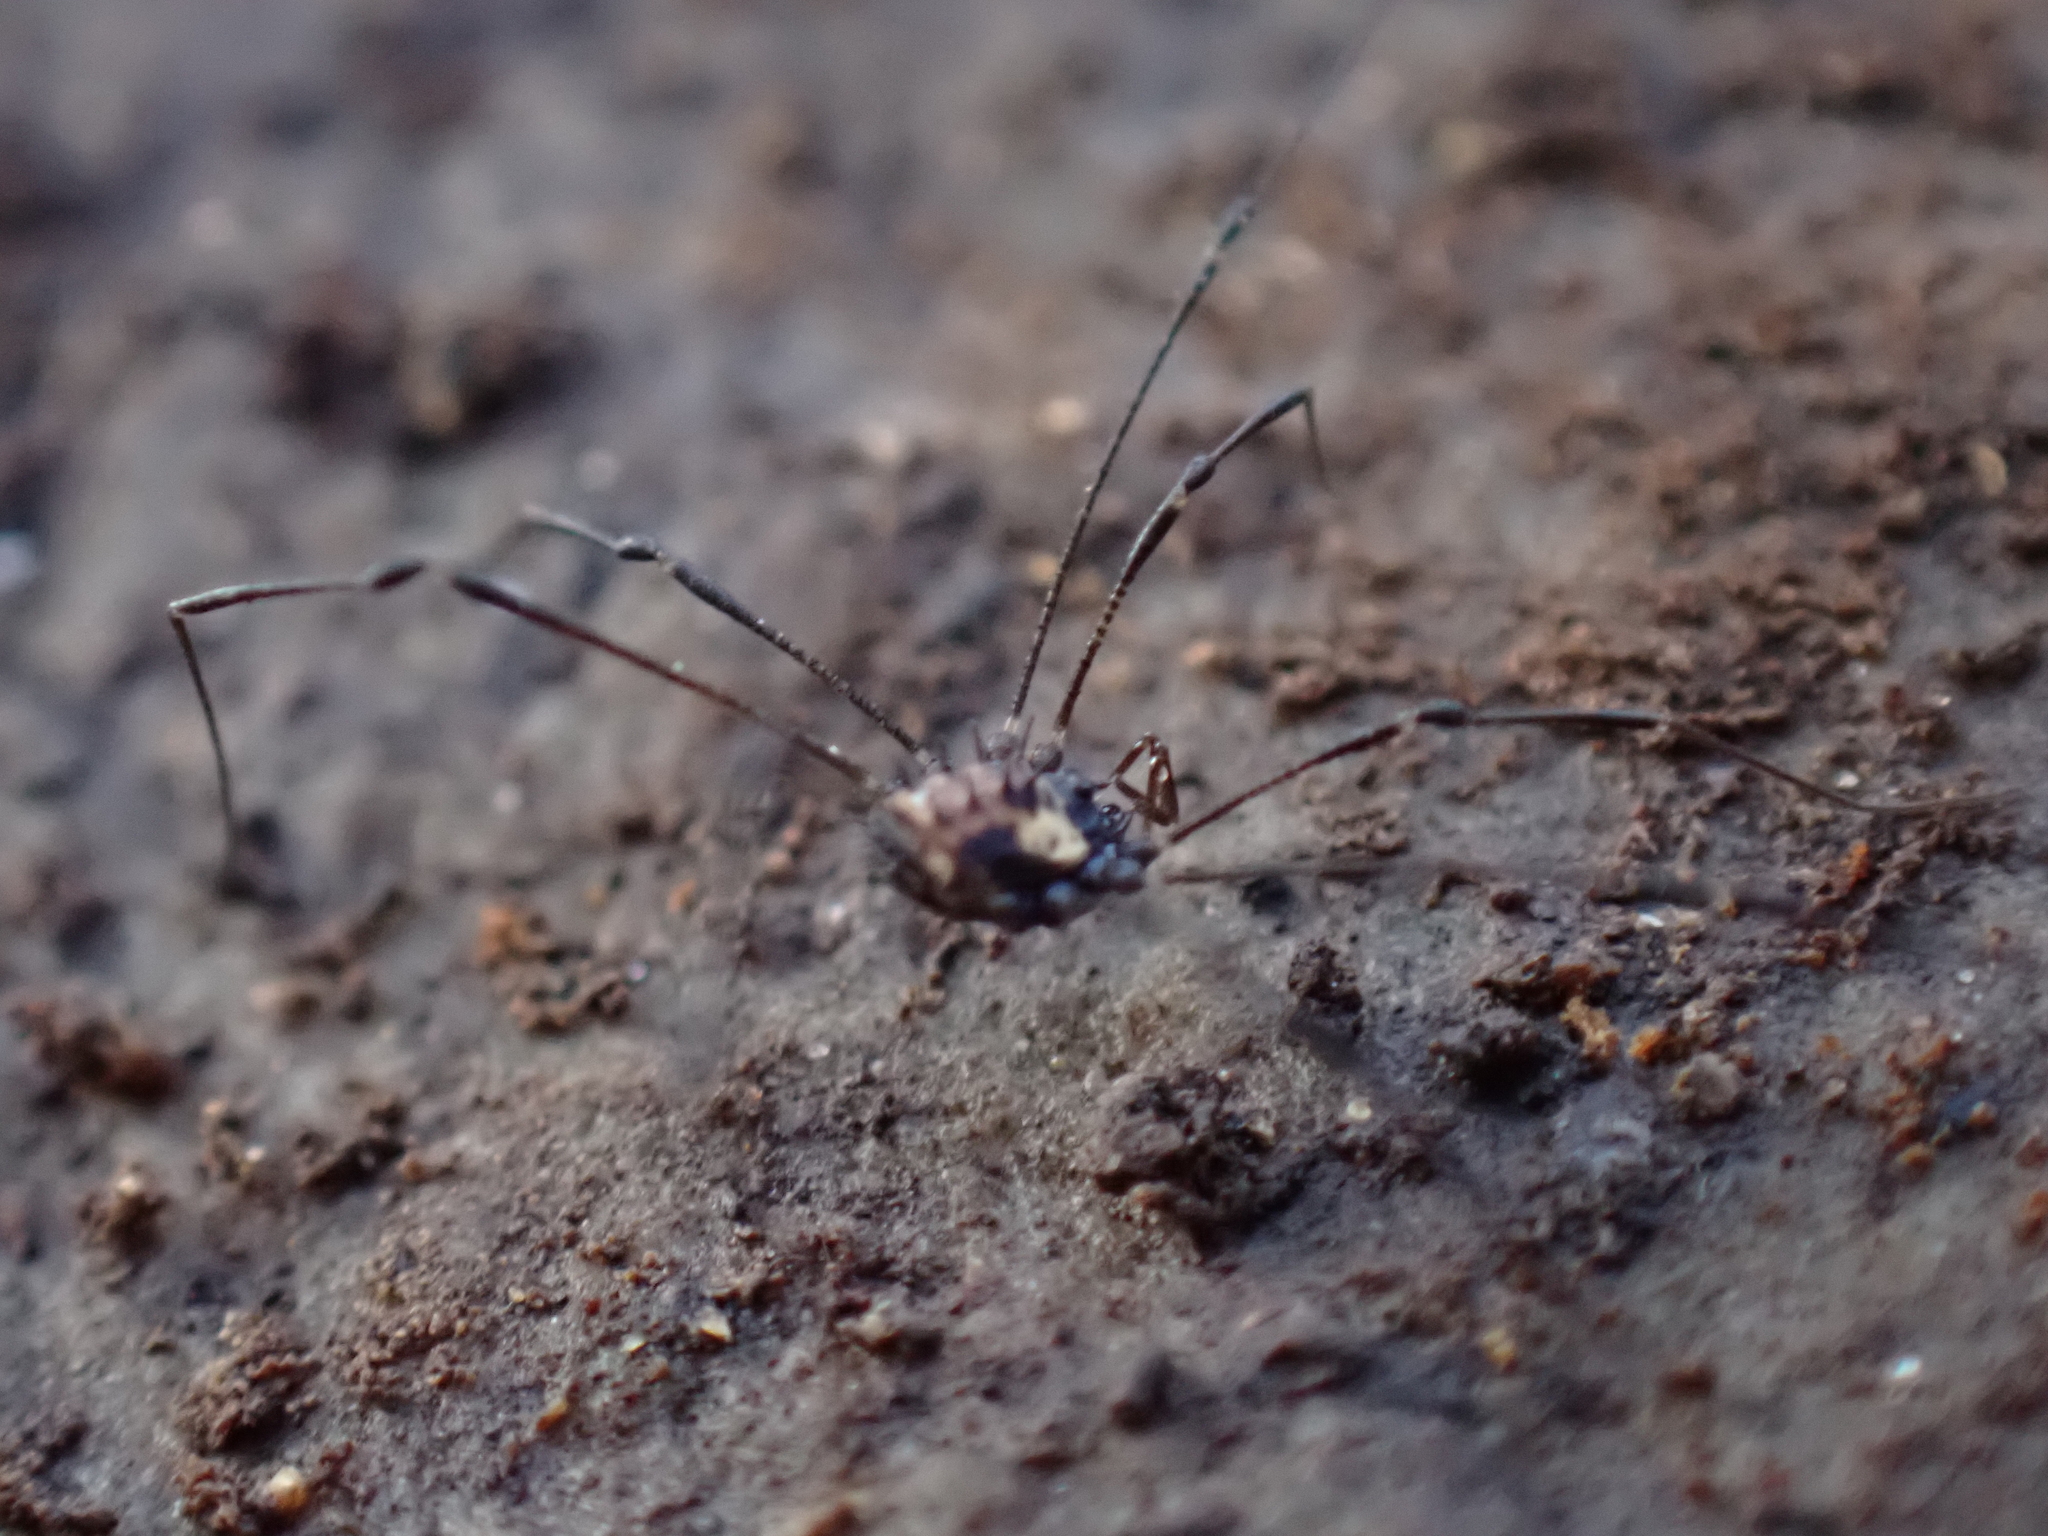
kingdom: Animalia
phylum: Arthropoda
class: Arachnida
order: Opiliones
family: Nemastomatidae
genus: Nemastomella
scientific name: Nemastomella bacillifera
